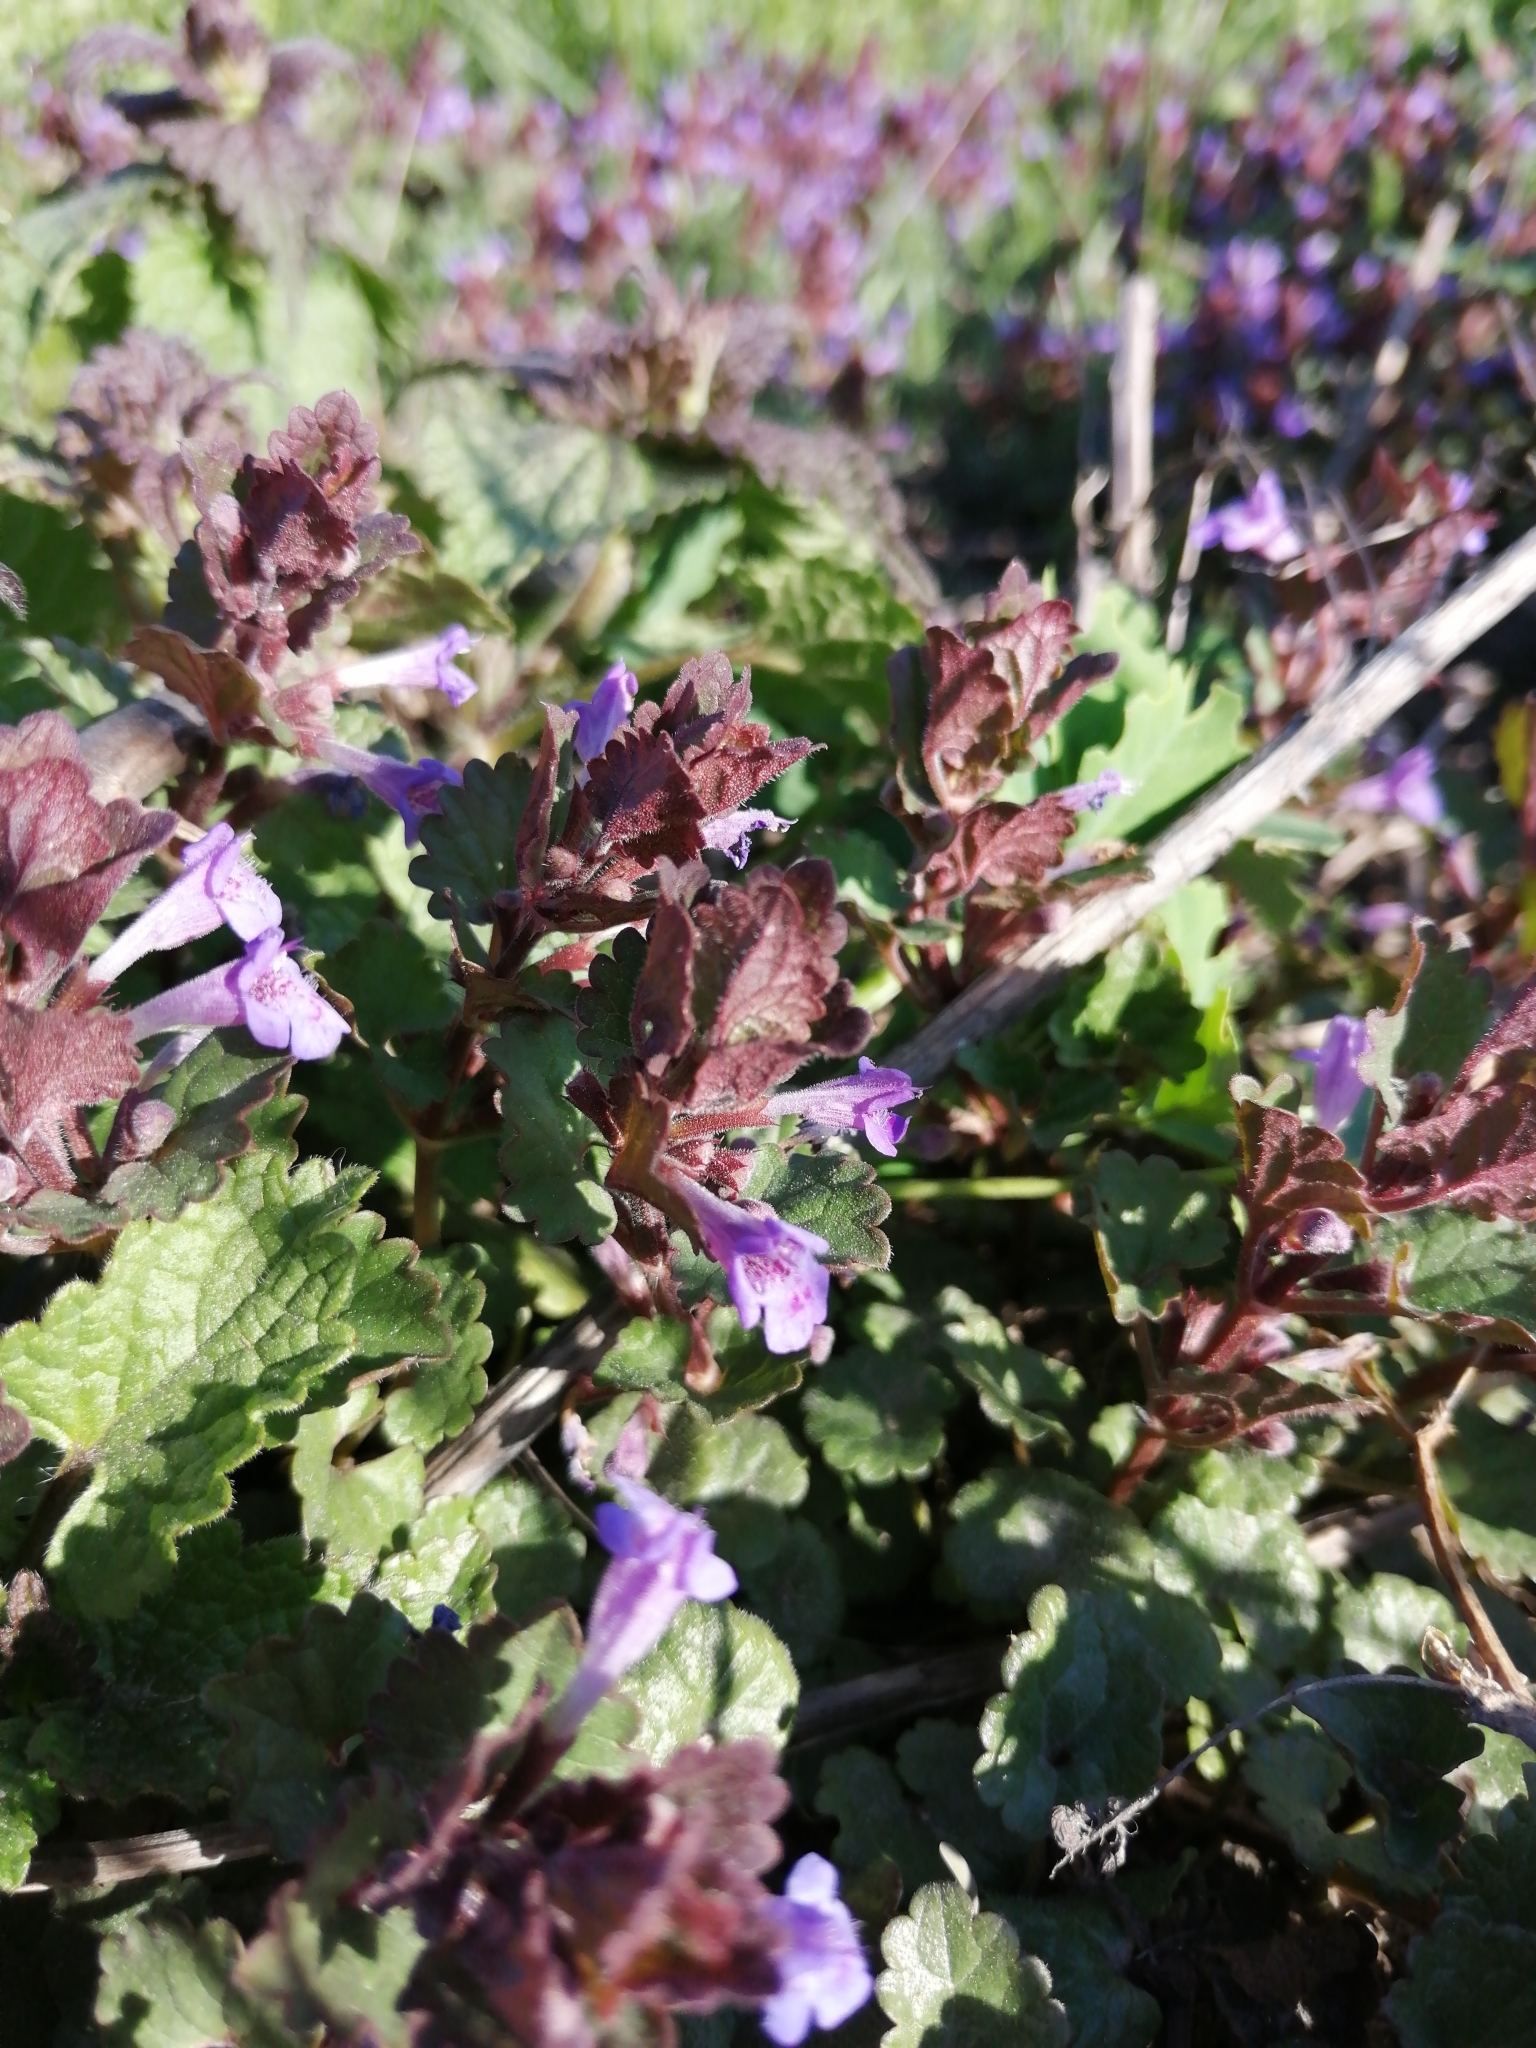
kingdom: Plantae
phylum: Tracheophyta
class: Magnoliopsida
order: Lamiales
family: Lamiaceae
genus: Glechoma
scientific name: Glechoma hederacea
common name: Ground ivy
